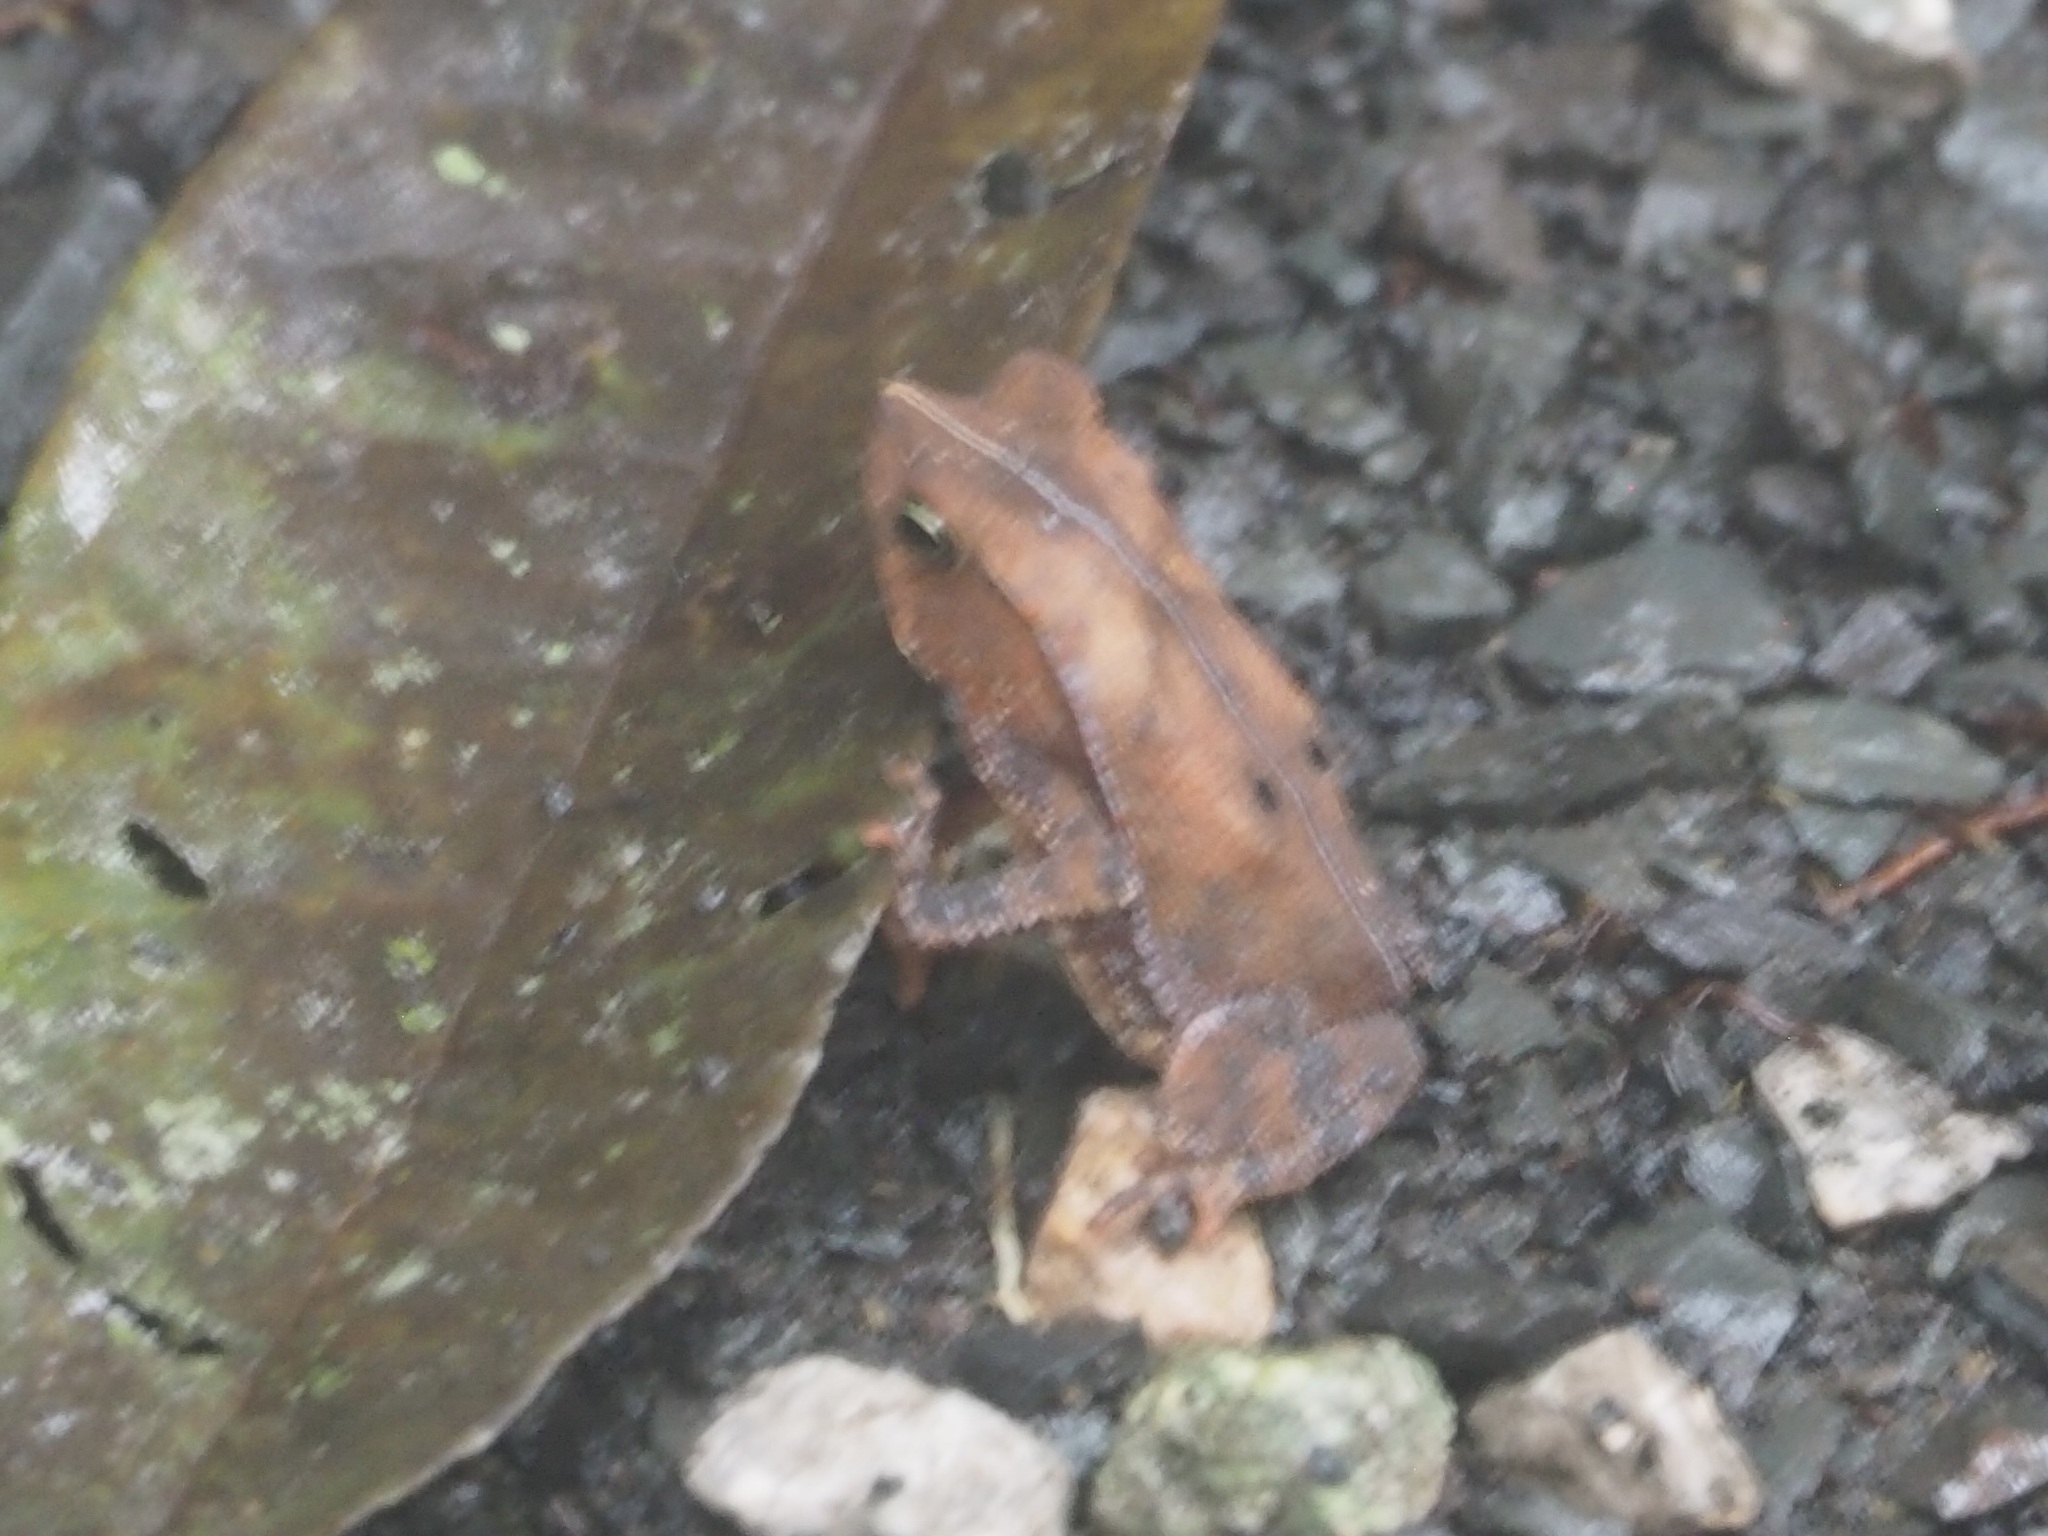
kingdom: Animalia
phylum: Chordata
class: Amphibia
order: Anura
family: Bufonidae
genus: Rhinella
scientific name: Rhinella alata
